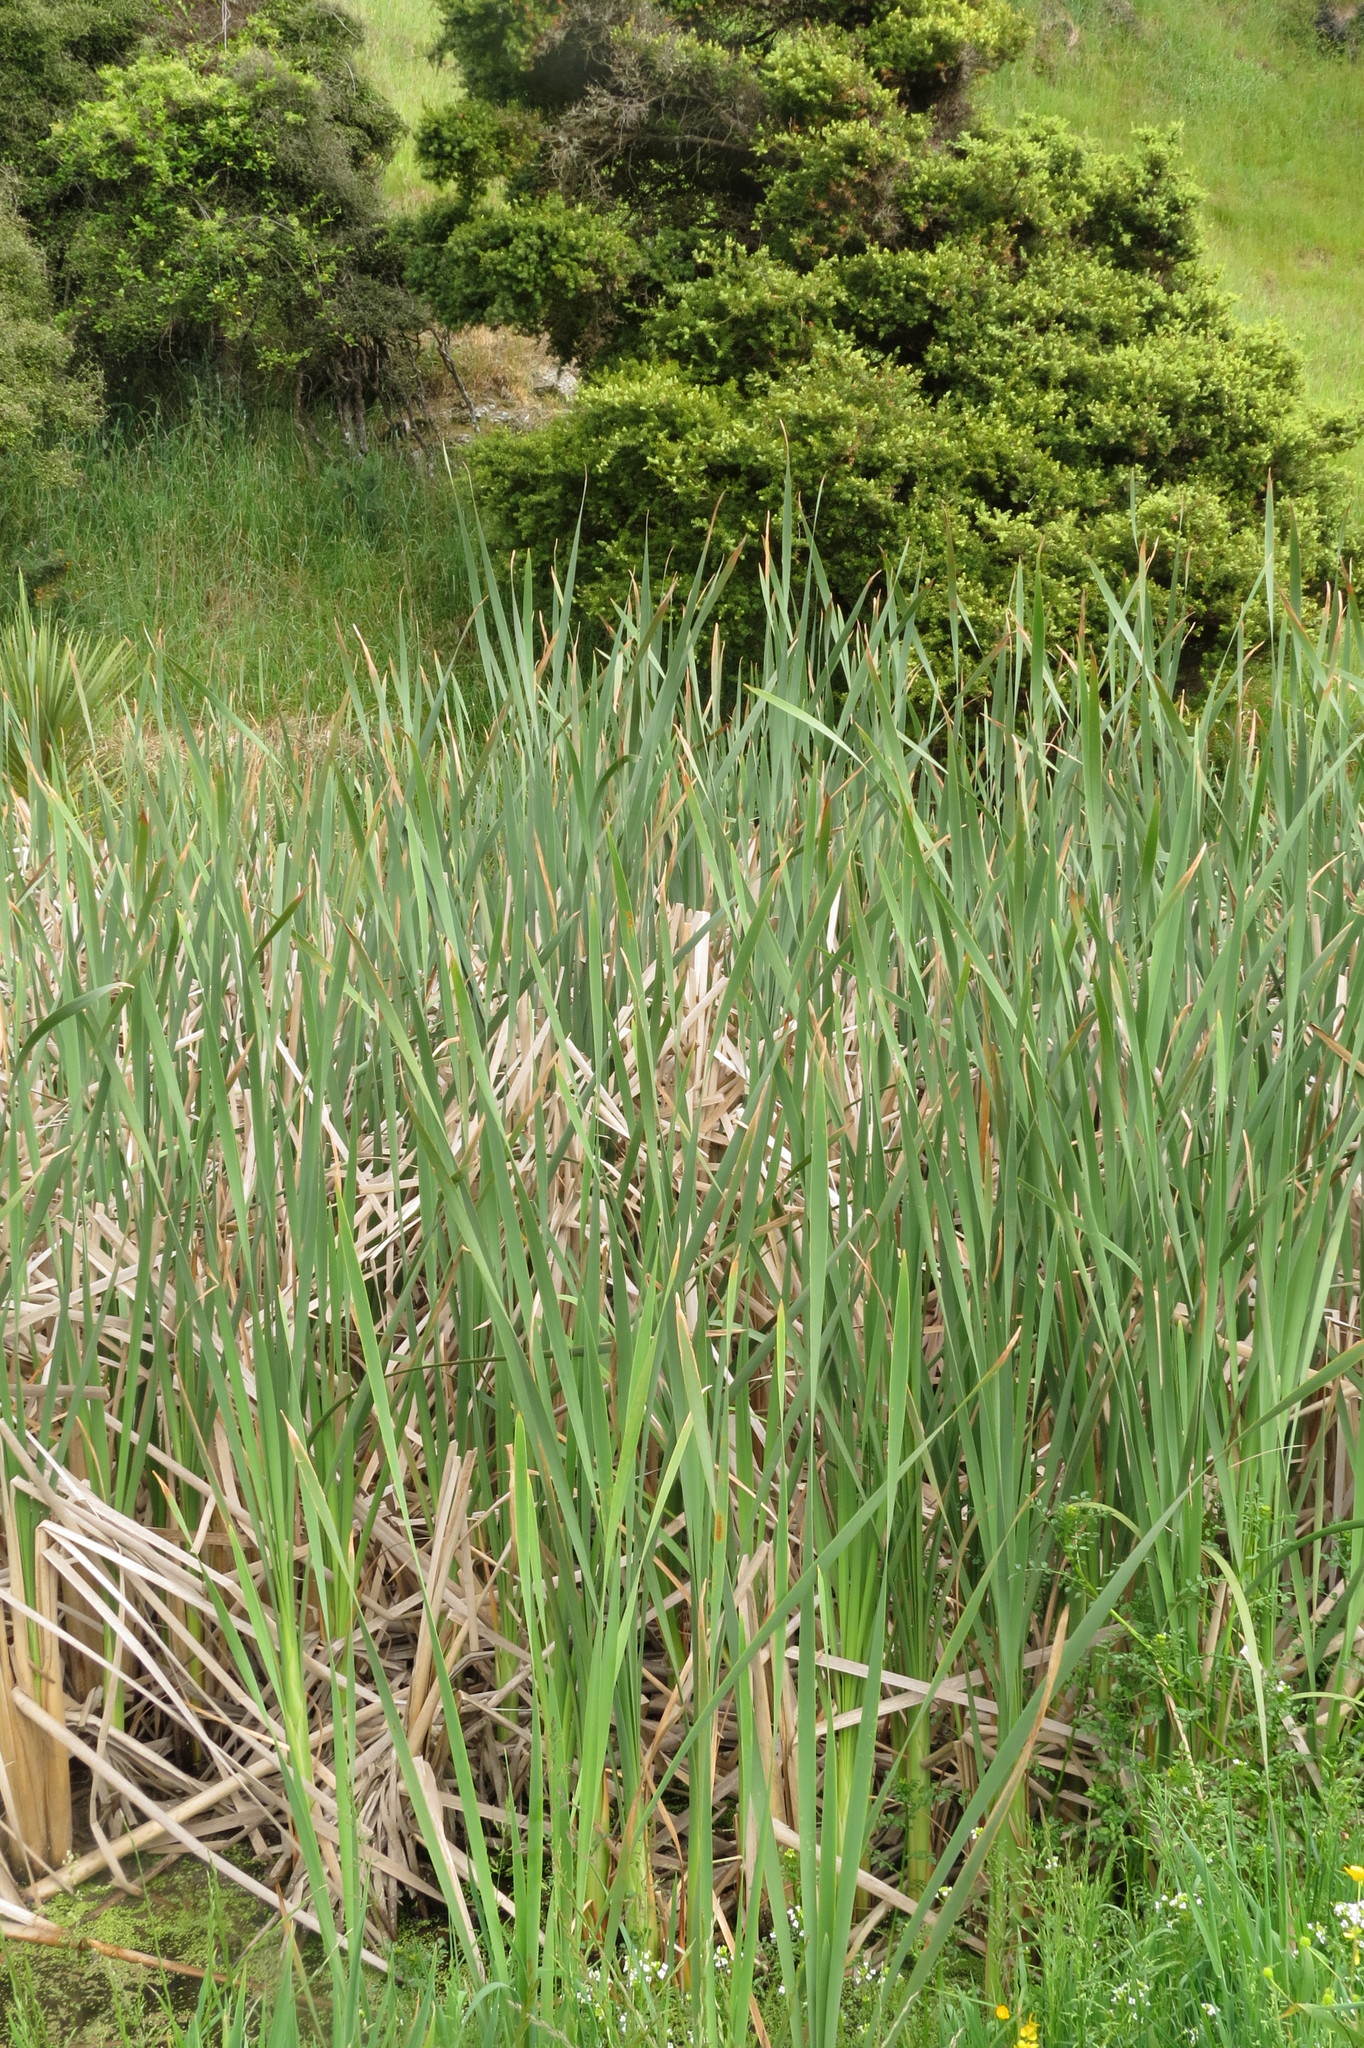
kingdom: Plantae
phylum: Tracheophyta
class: Liliopsida
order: Poales
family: Typhaceae
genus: Typha
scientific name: Typha orientalis
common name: Bullrush
